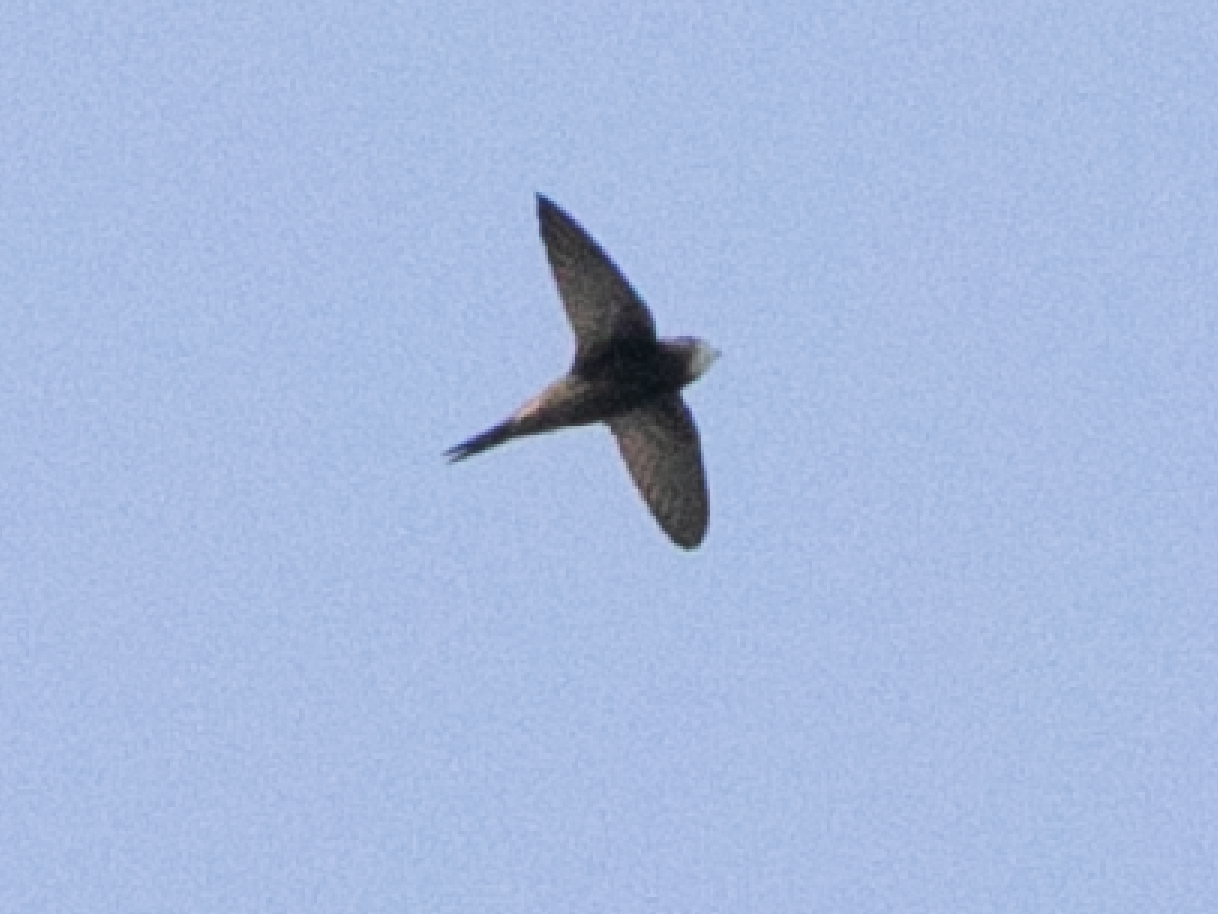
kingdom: Animalia
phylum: Chordata
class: Aves
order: Apodiformes
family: Apodidae
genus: Apus
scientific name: Apus apus
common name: Common swift
